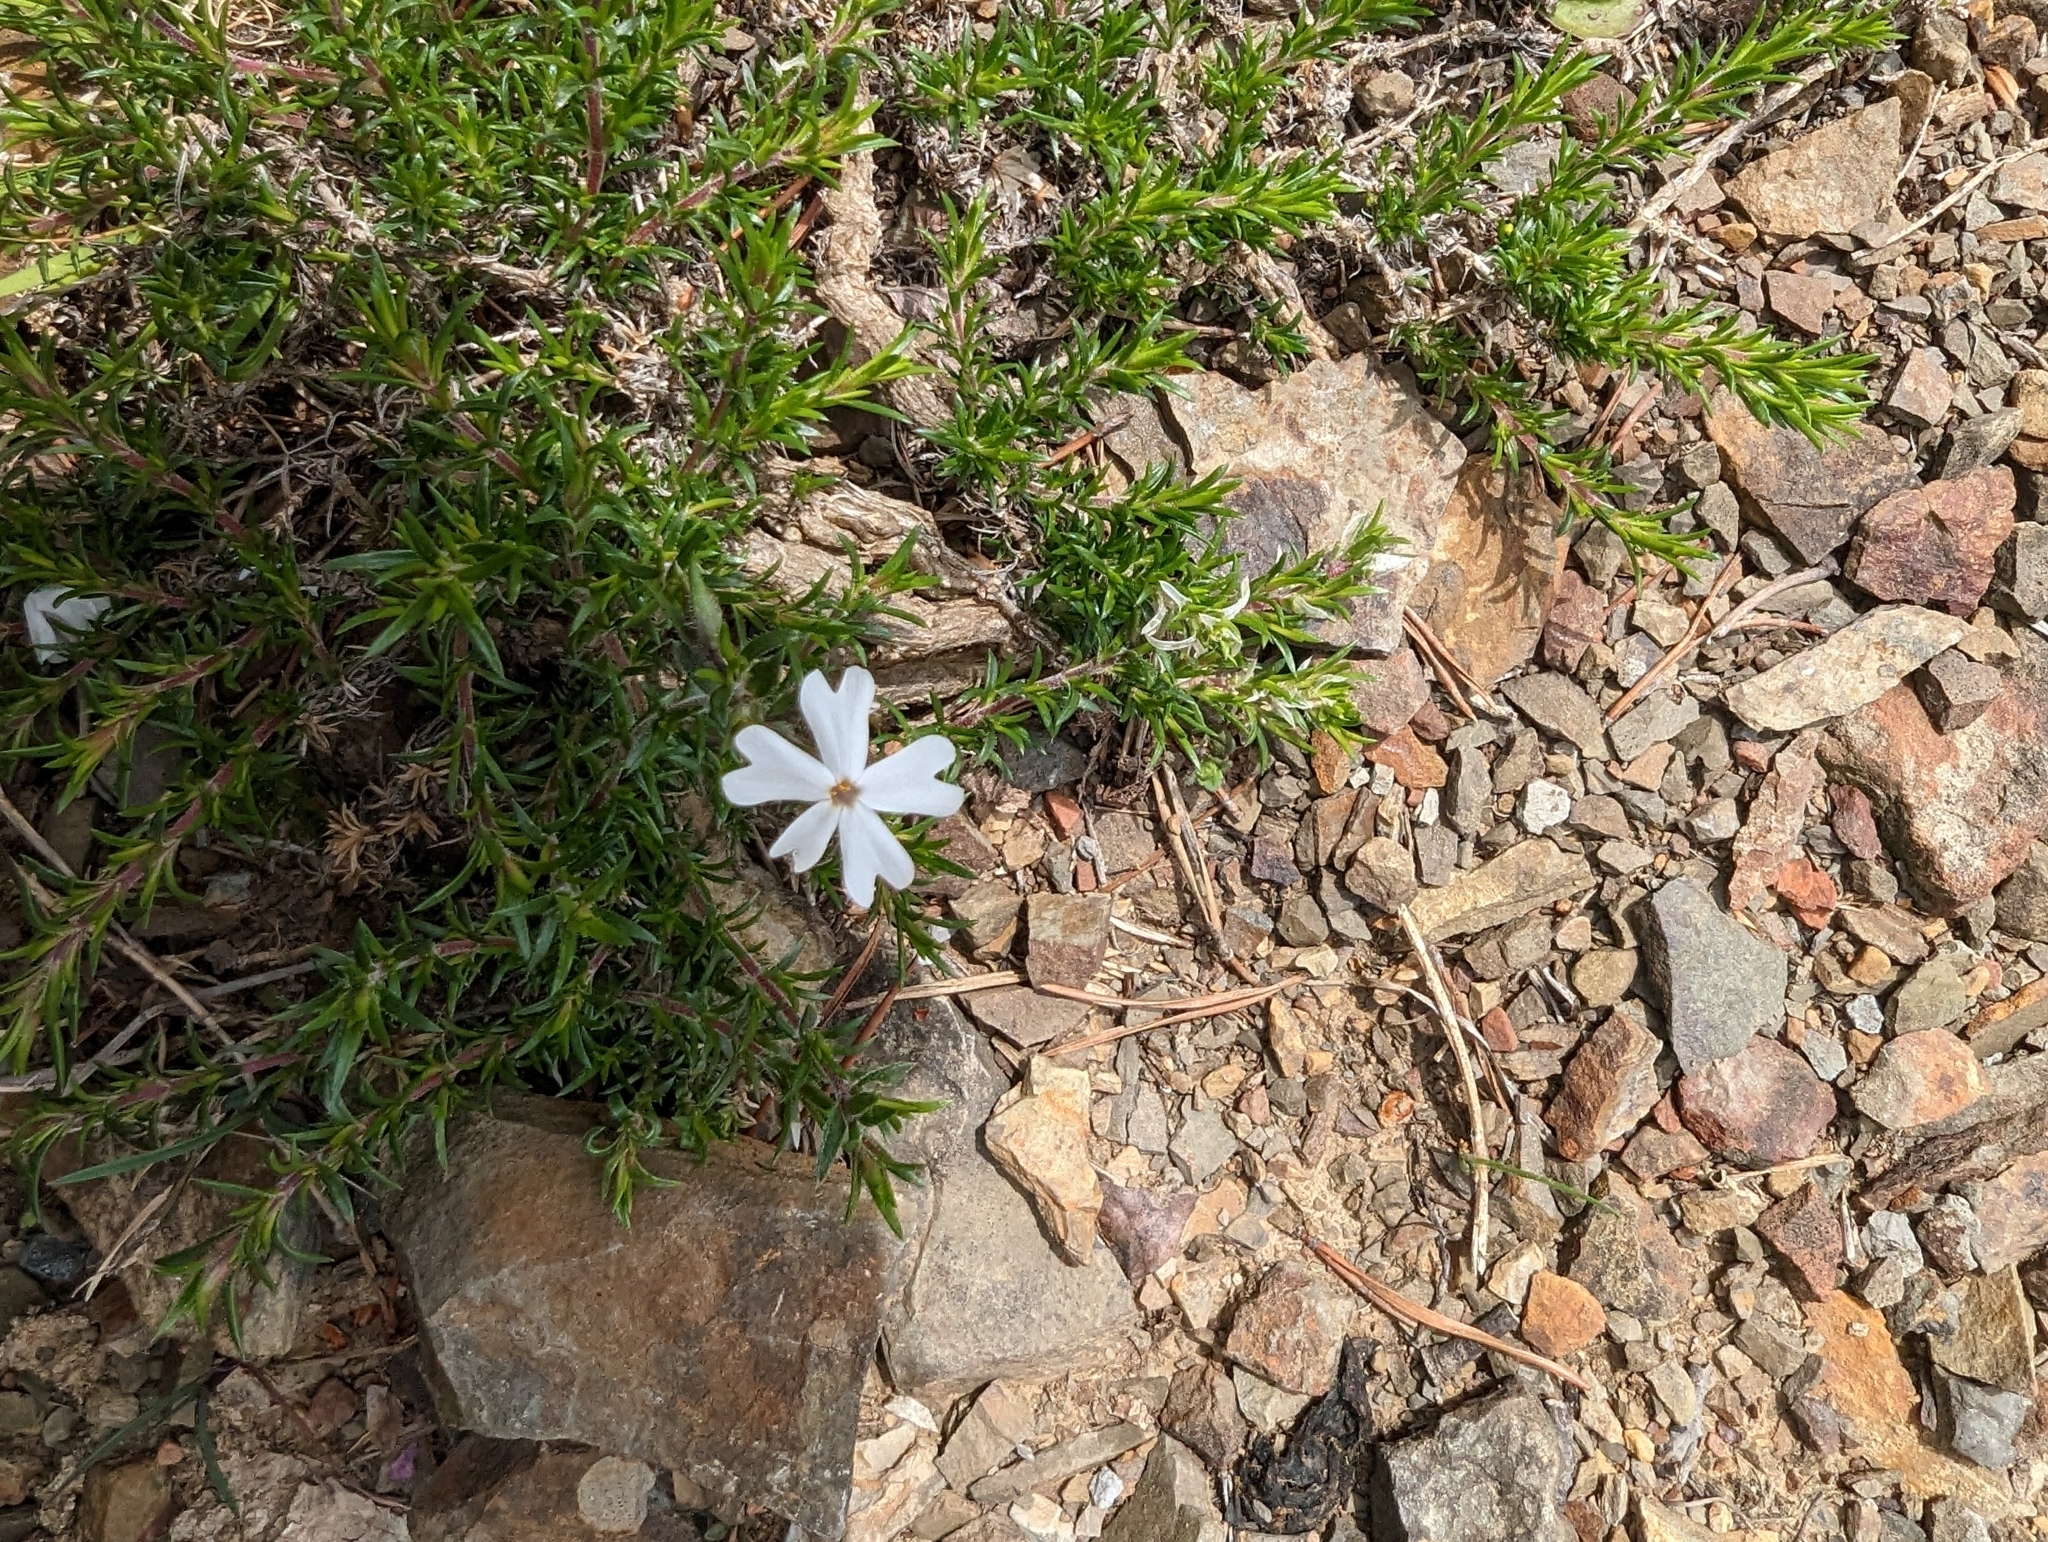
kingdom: Plantae
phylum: Tracheophyta
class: Magnoliopsida
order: Ericales
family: Polemoniaceae
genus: Phlox
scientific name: Phlox subulata
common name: Moss phlox
